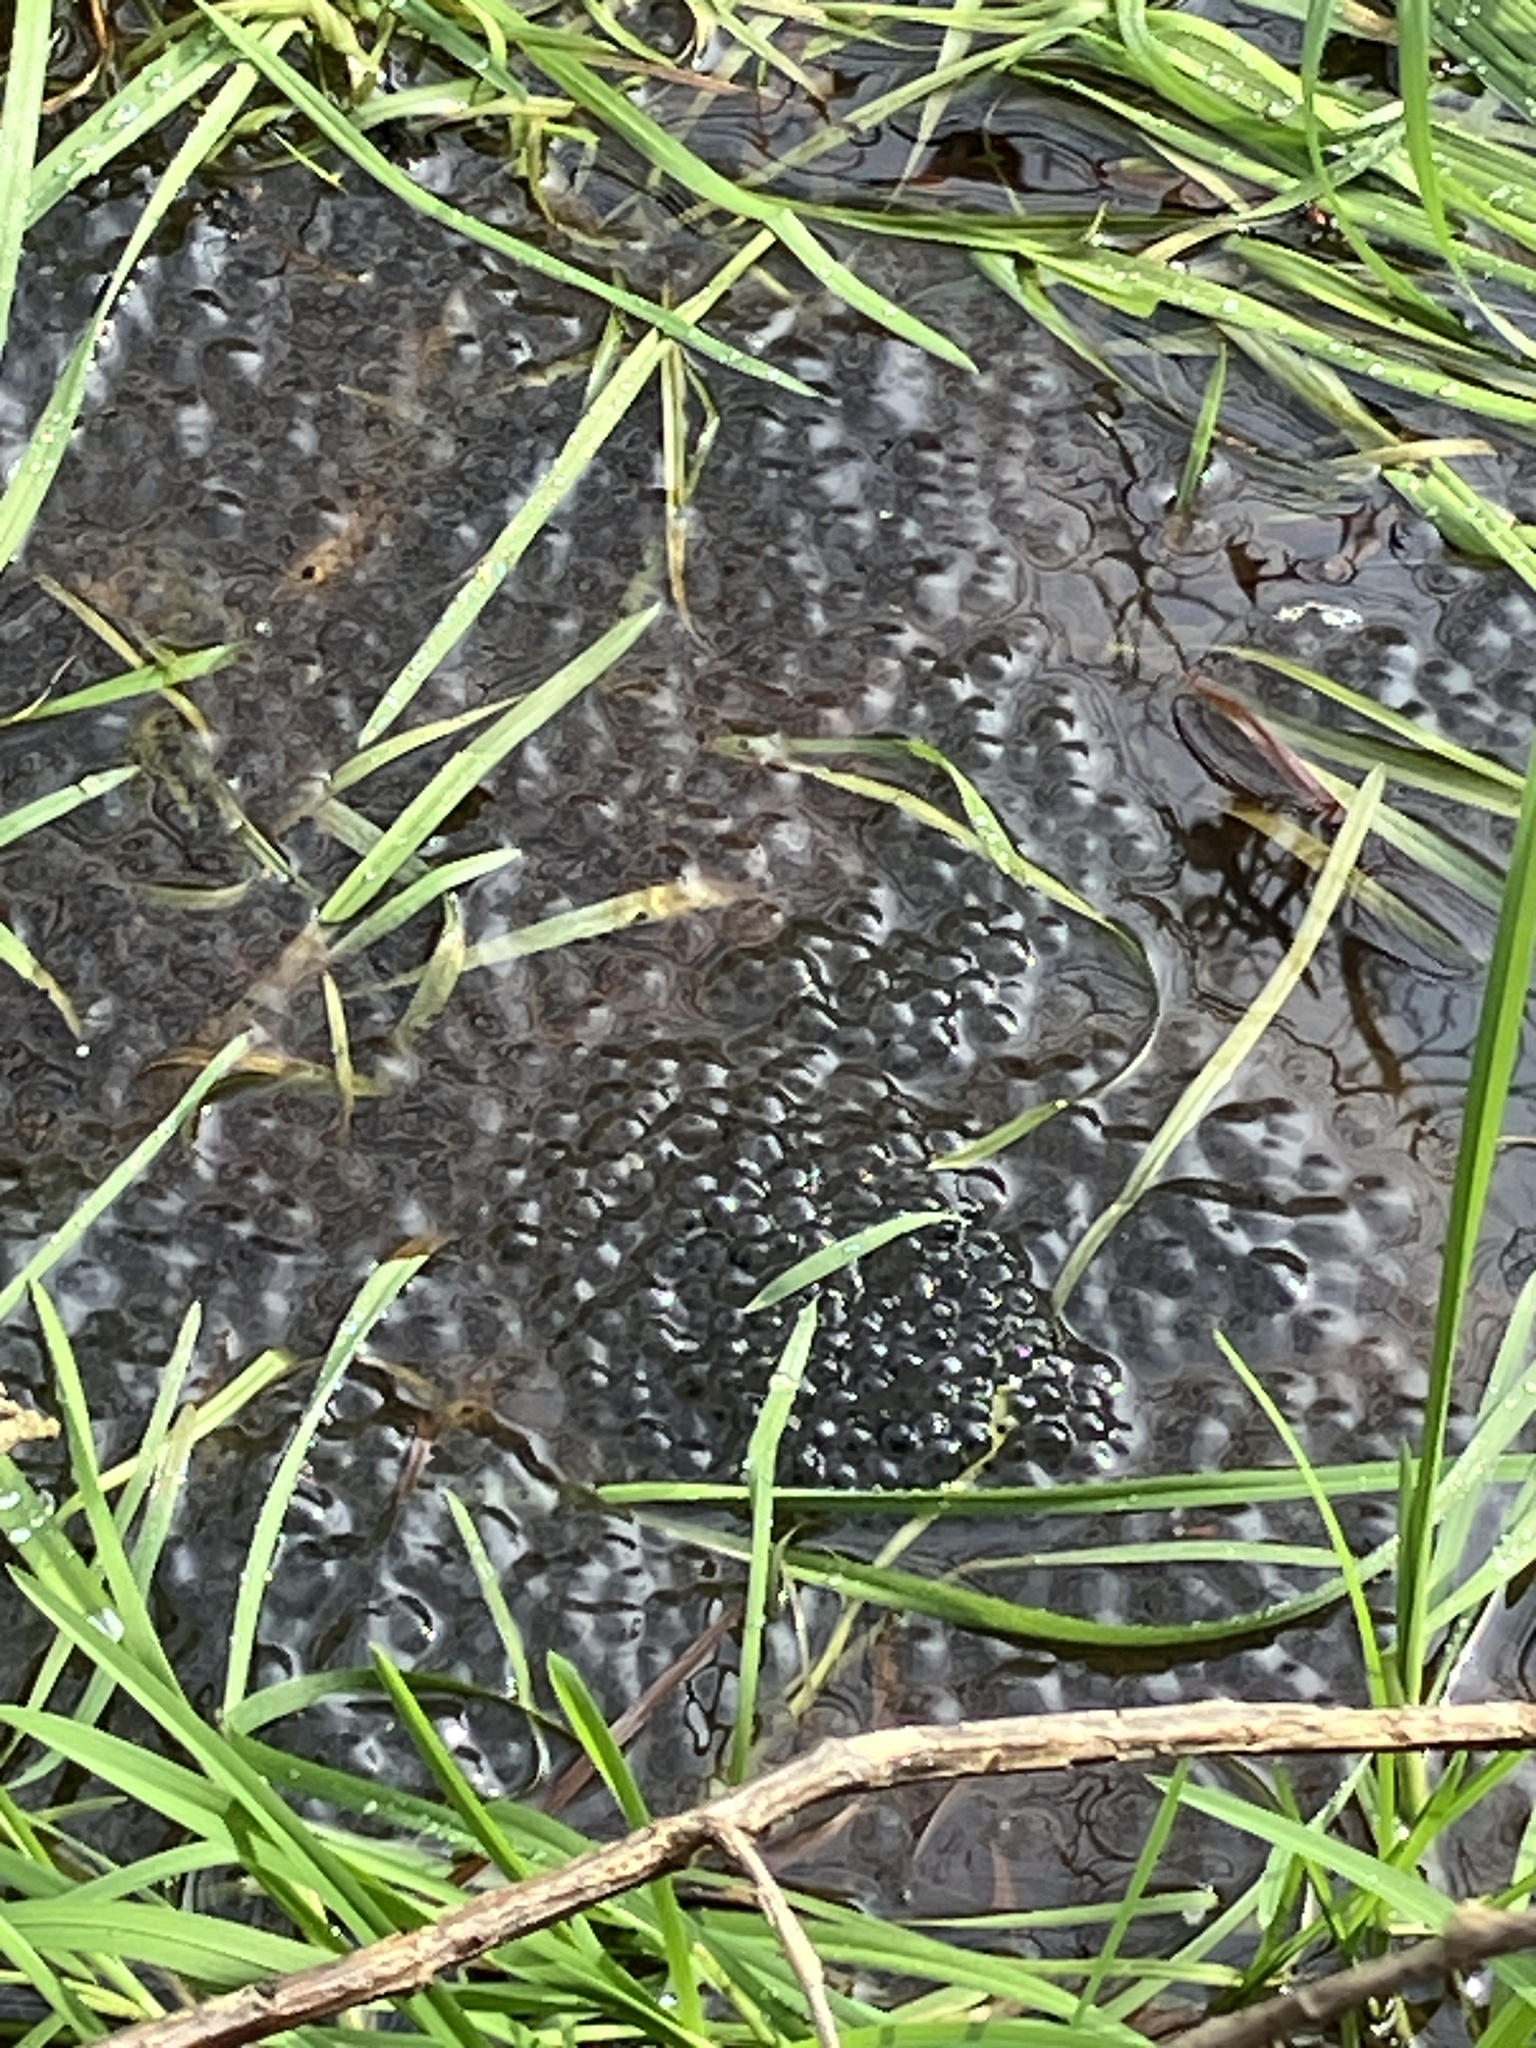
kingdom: Animalia
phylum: Chordata
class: Amphibia
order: Anura
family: Ranidae
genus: Rana
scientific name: Rana temporaria
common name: Common frog
